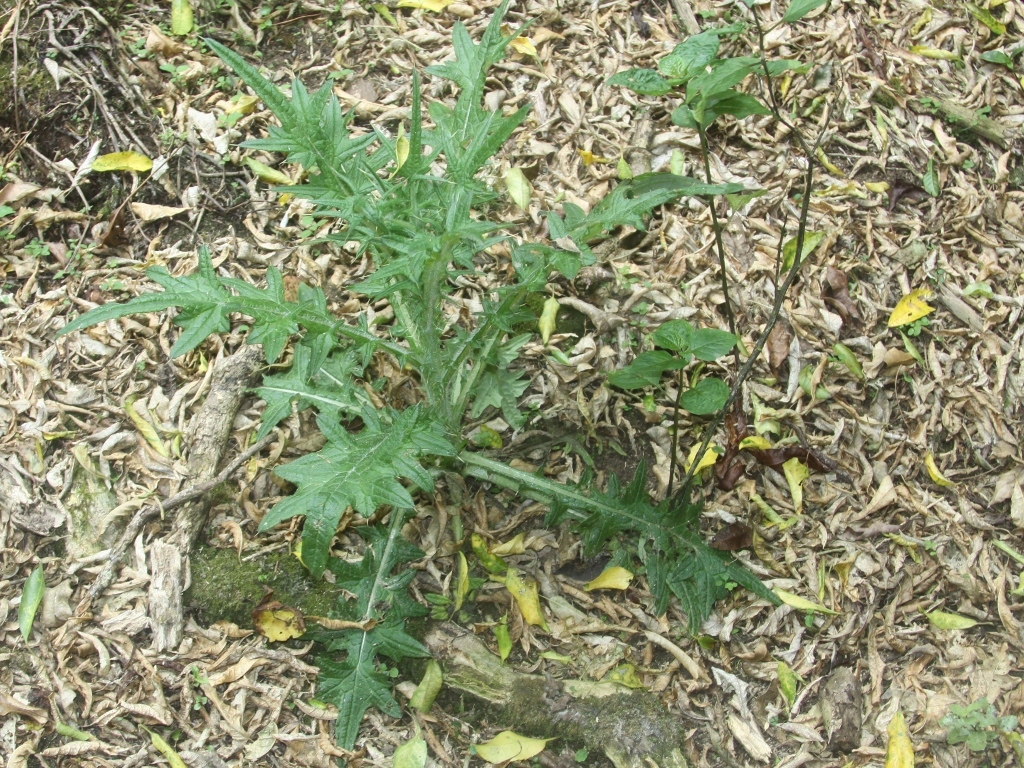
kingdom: Plantae
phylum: Tracheophyta
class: Magnoliopsida
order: Asterales
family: Asteraceae
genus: Cirsium
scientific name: Cirsium vulgare
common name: Bull thistle
